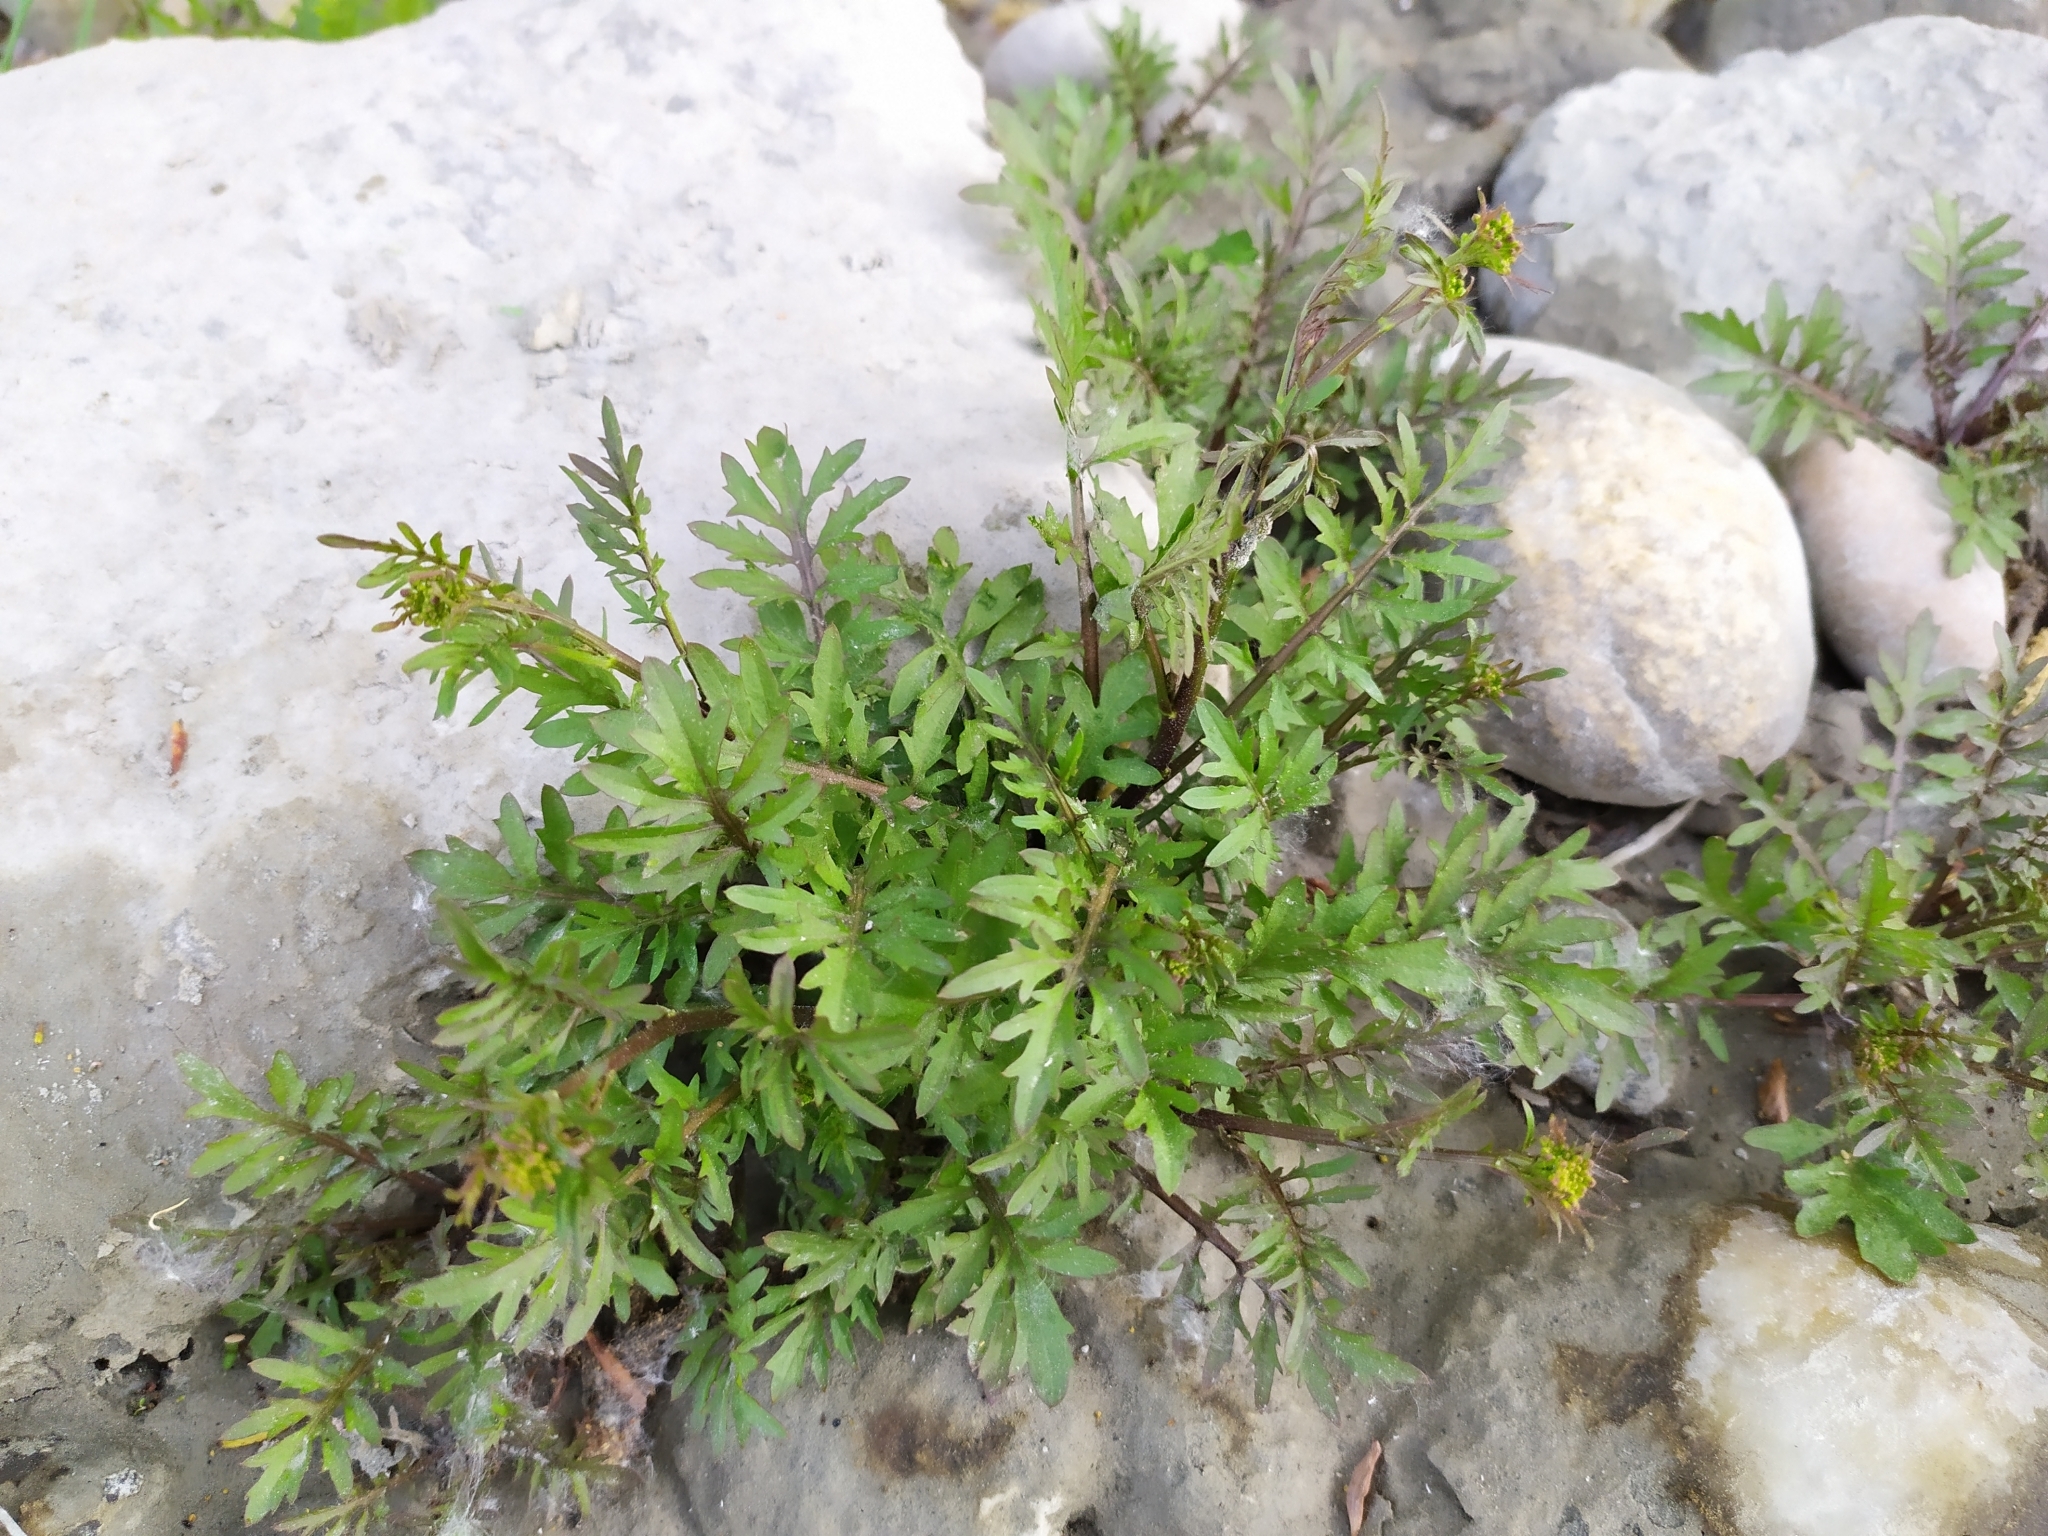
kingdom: Plantae
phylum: Tracheophyta
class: Magnoliopsida
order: Brassicales
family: Brassicaceae
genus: Rorippa
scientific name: Rorippa sylvestris
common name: Creeping yellowcress
